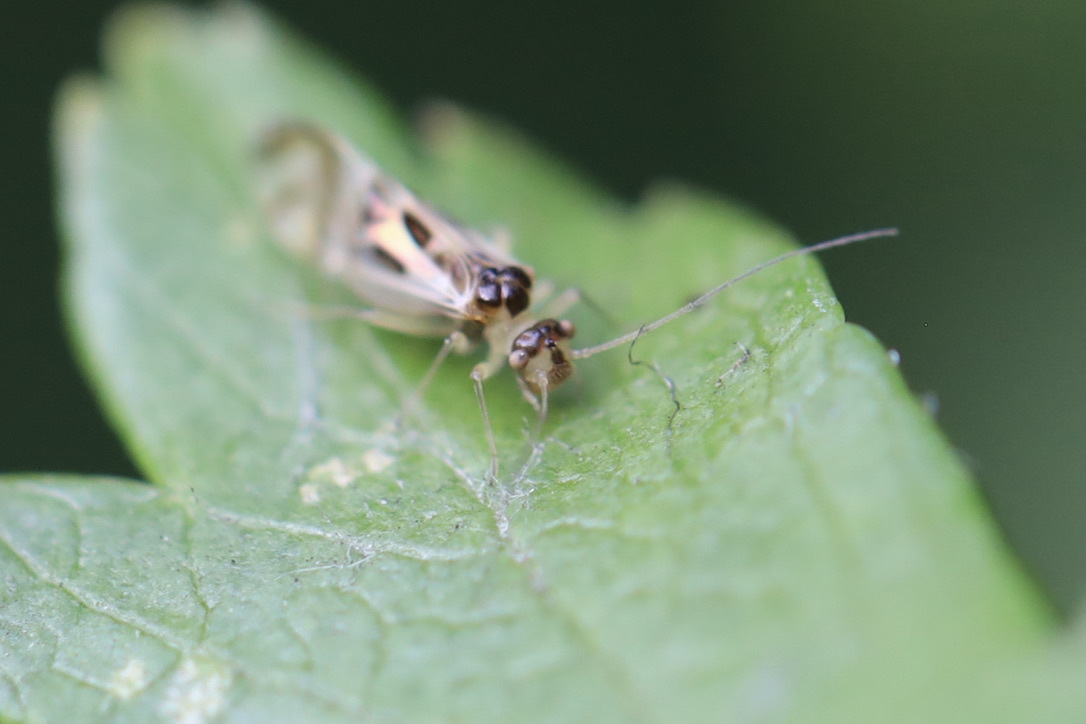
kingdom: Animalia
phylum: Arthropoda
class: Insecta
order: Psocodea
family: Stenopsocidae
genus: Graphopsocus
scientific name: Graphopsocus cruciatus
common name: Lizard bark louse
